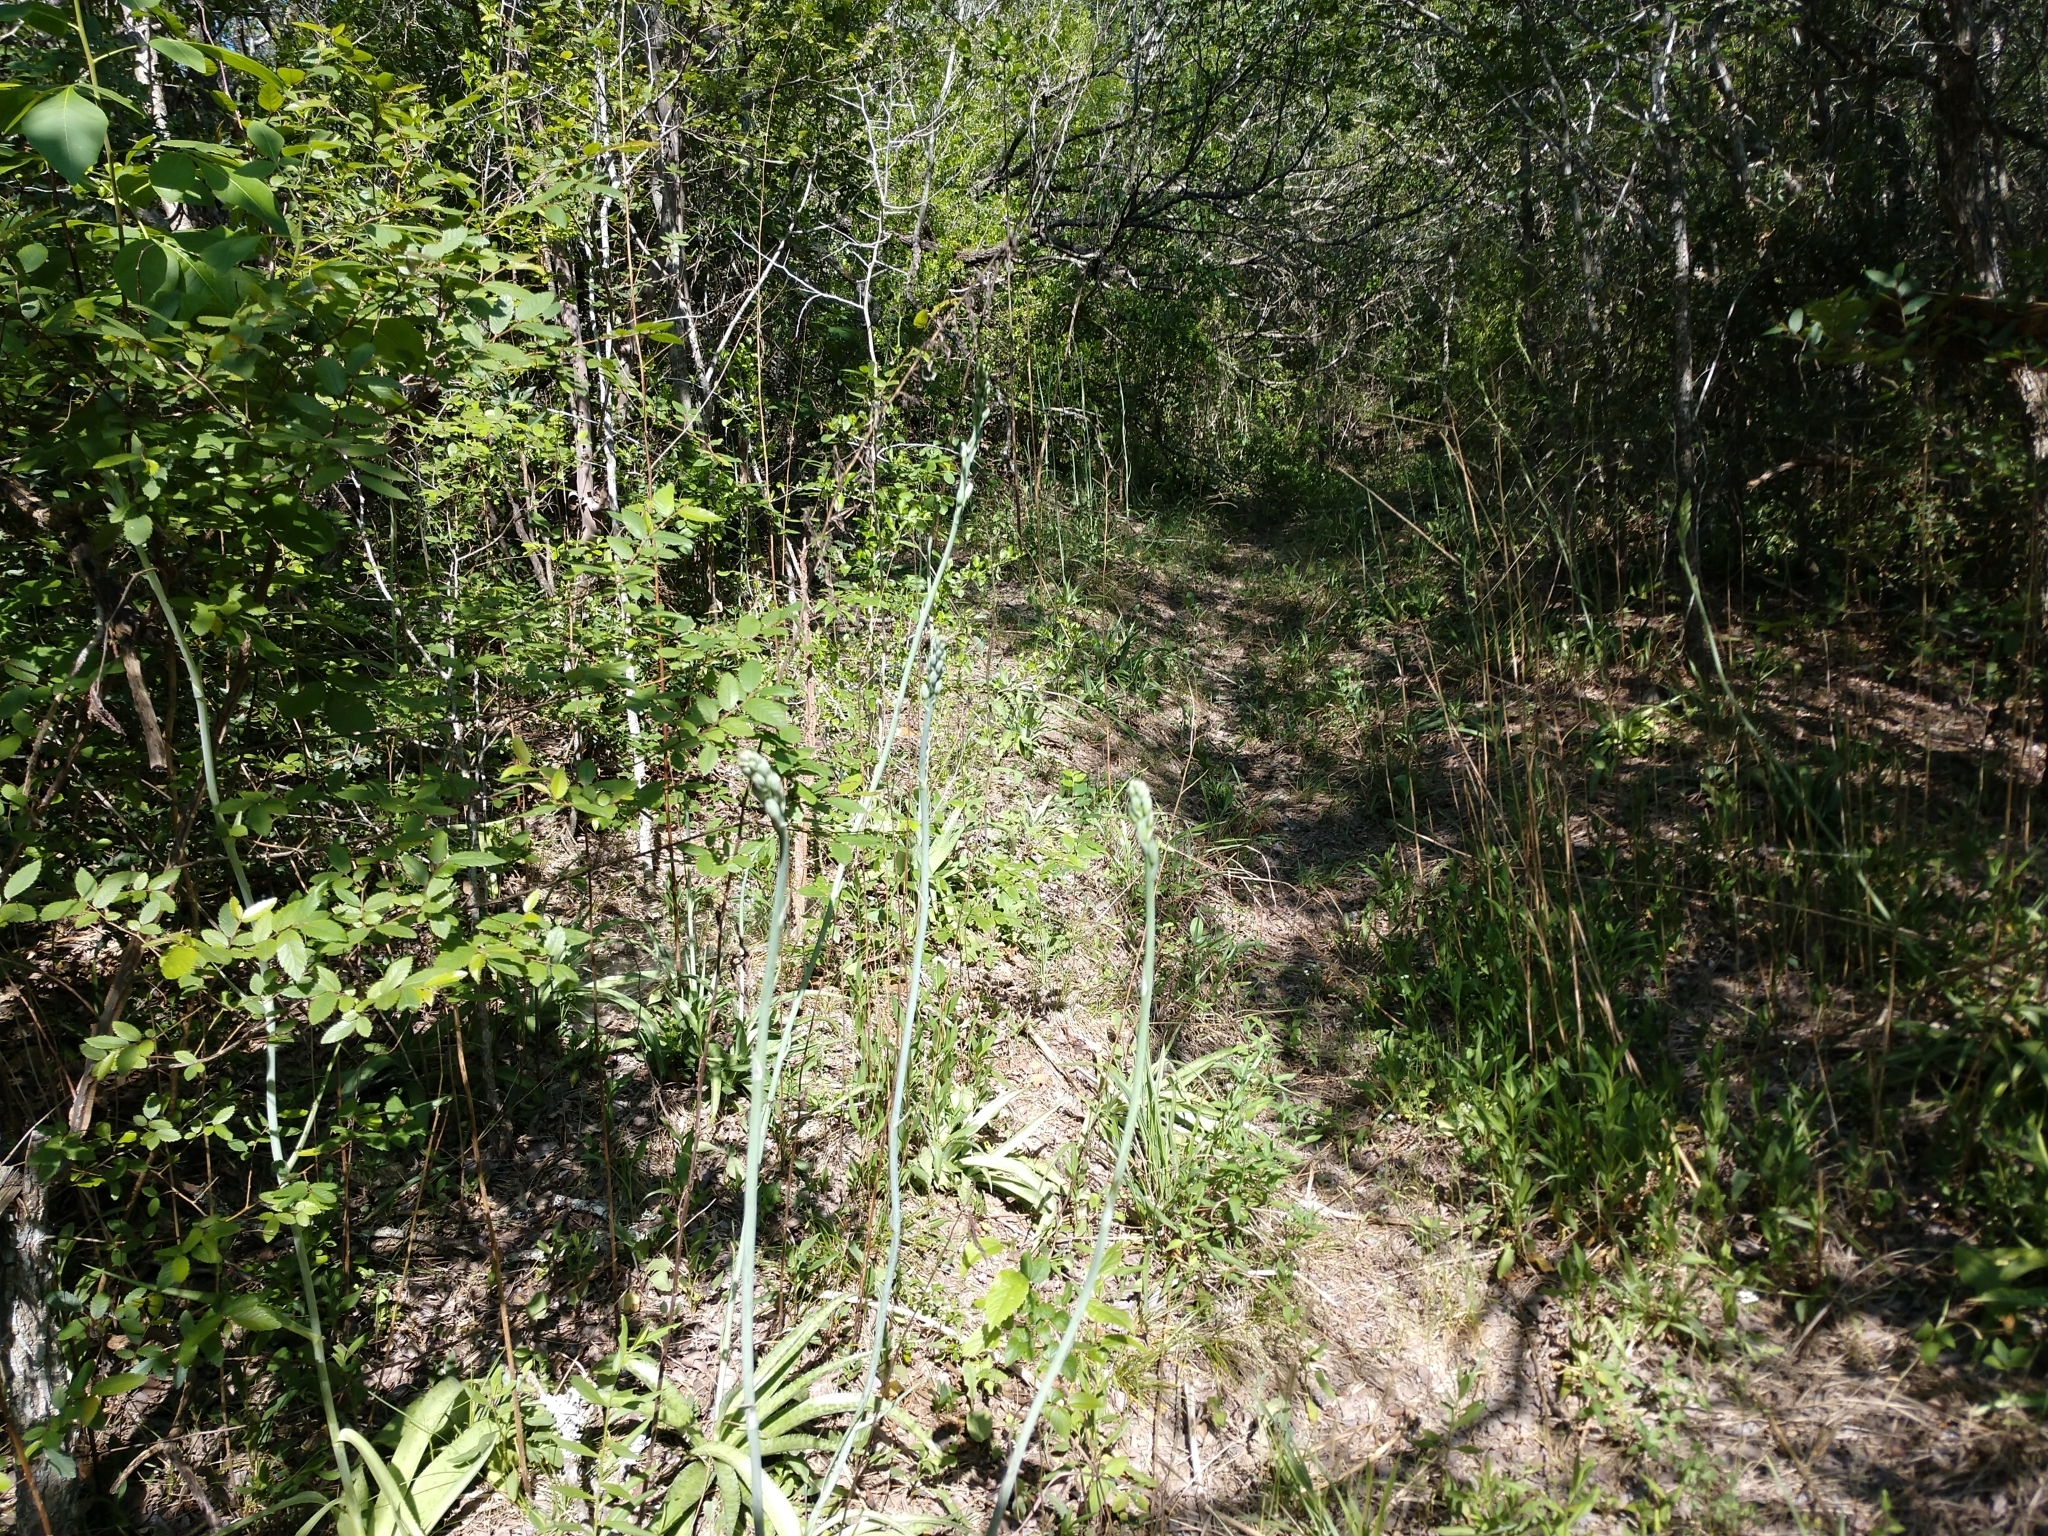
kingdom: Plantae
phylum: Tracheophyta
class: Liliopsida
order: Asparagales
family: Asparagaceae
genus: Agave
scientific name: Agave maculata
